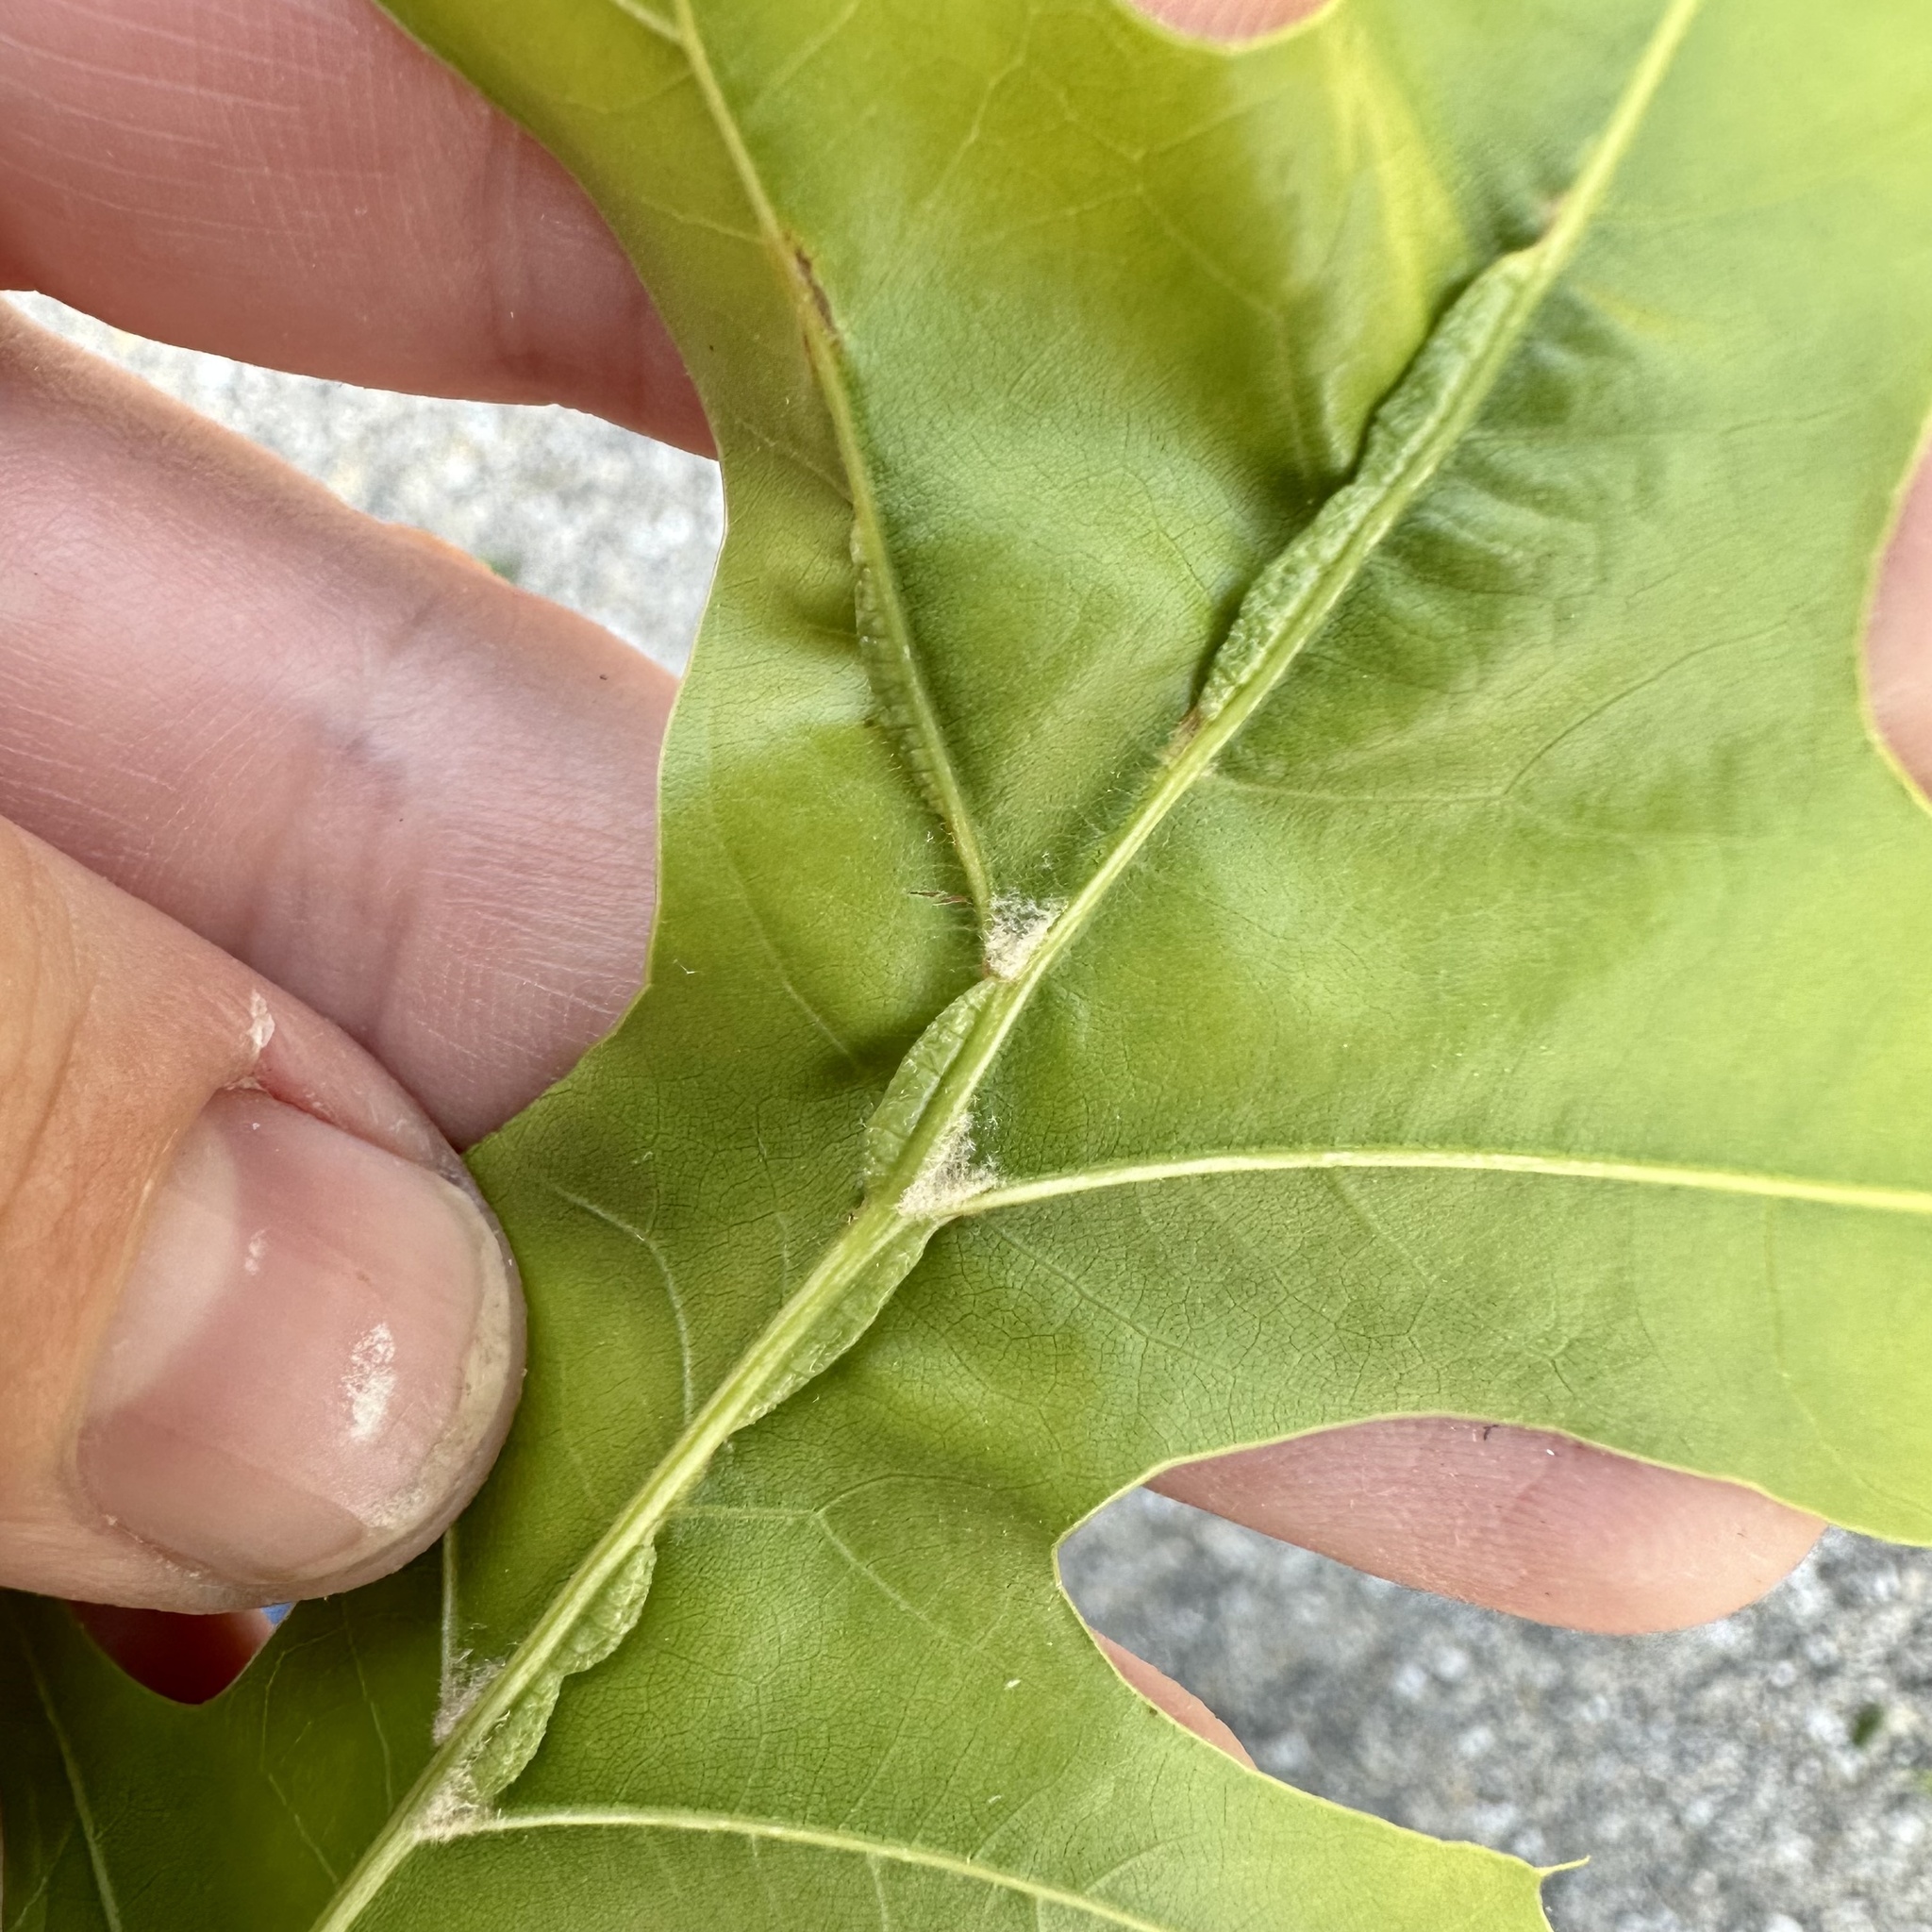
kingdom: Animalia
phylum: Arthropoda
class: Insecta
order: Diptera
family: Cecidomyiidae
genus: Macrodiplosis
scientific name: Macrodiplosis q-orucum
